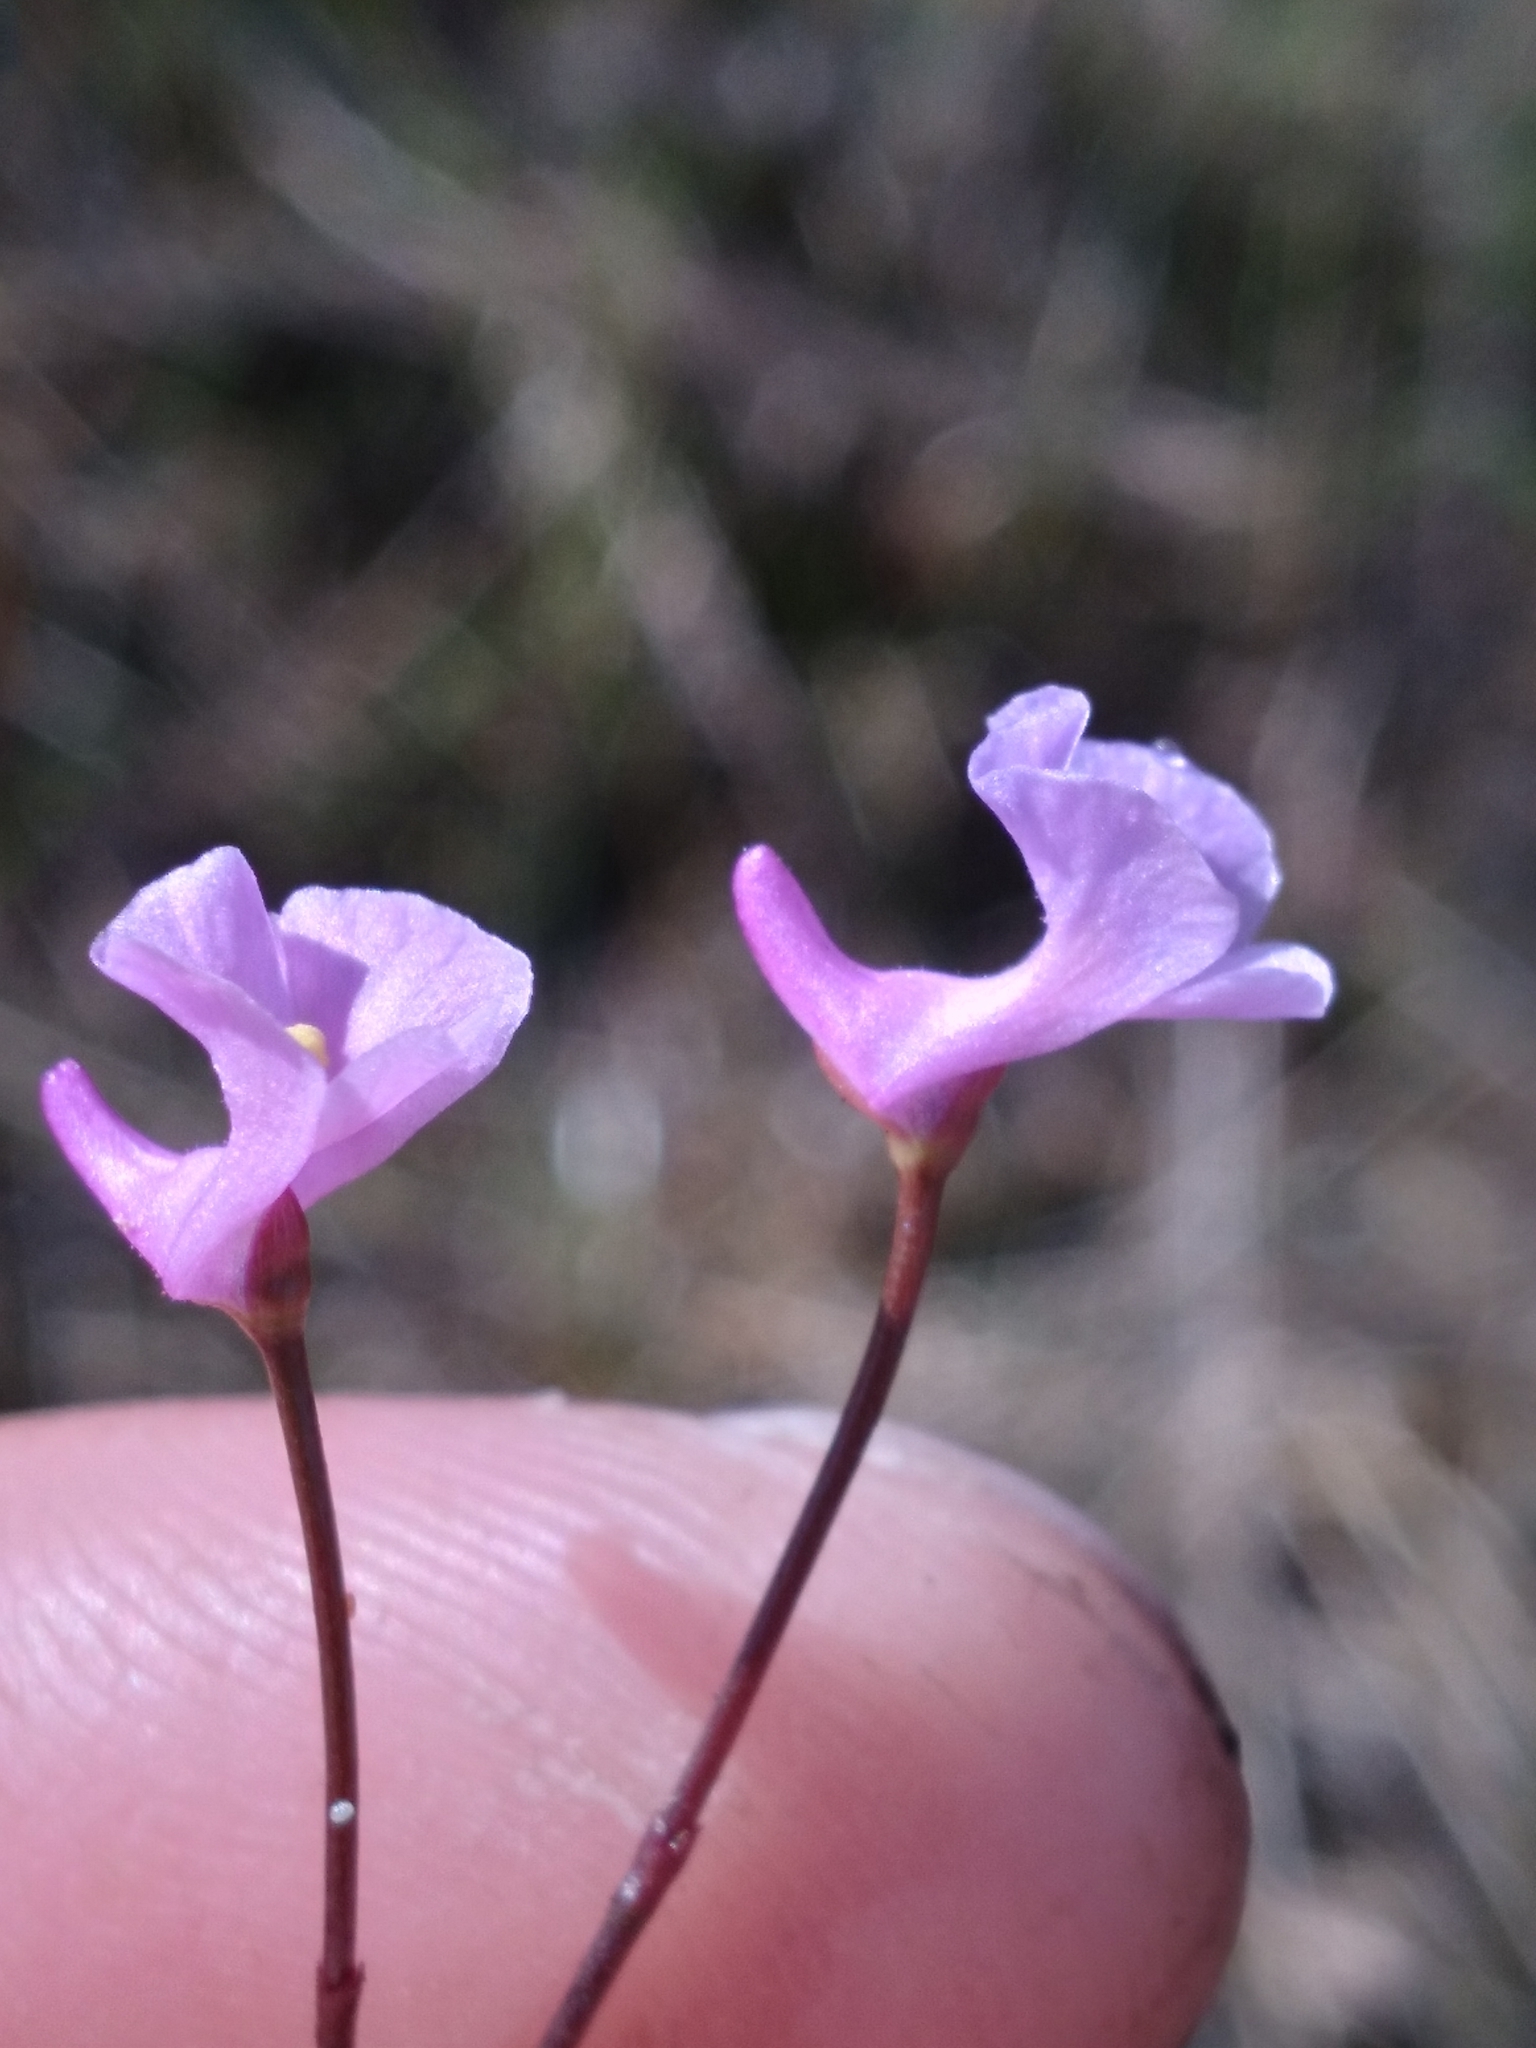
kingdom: Plantae
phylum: Tracheophyta
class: Magnoliopsida
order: Lamiales
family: Lentibulariaceae
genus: Utricularia
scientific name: Utricularia resupinata
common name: Northeastern bladderwort
